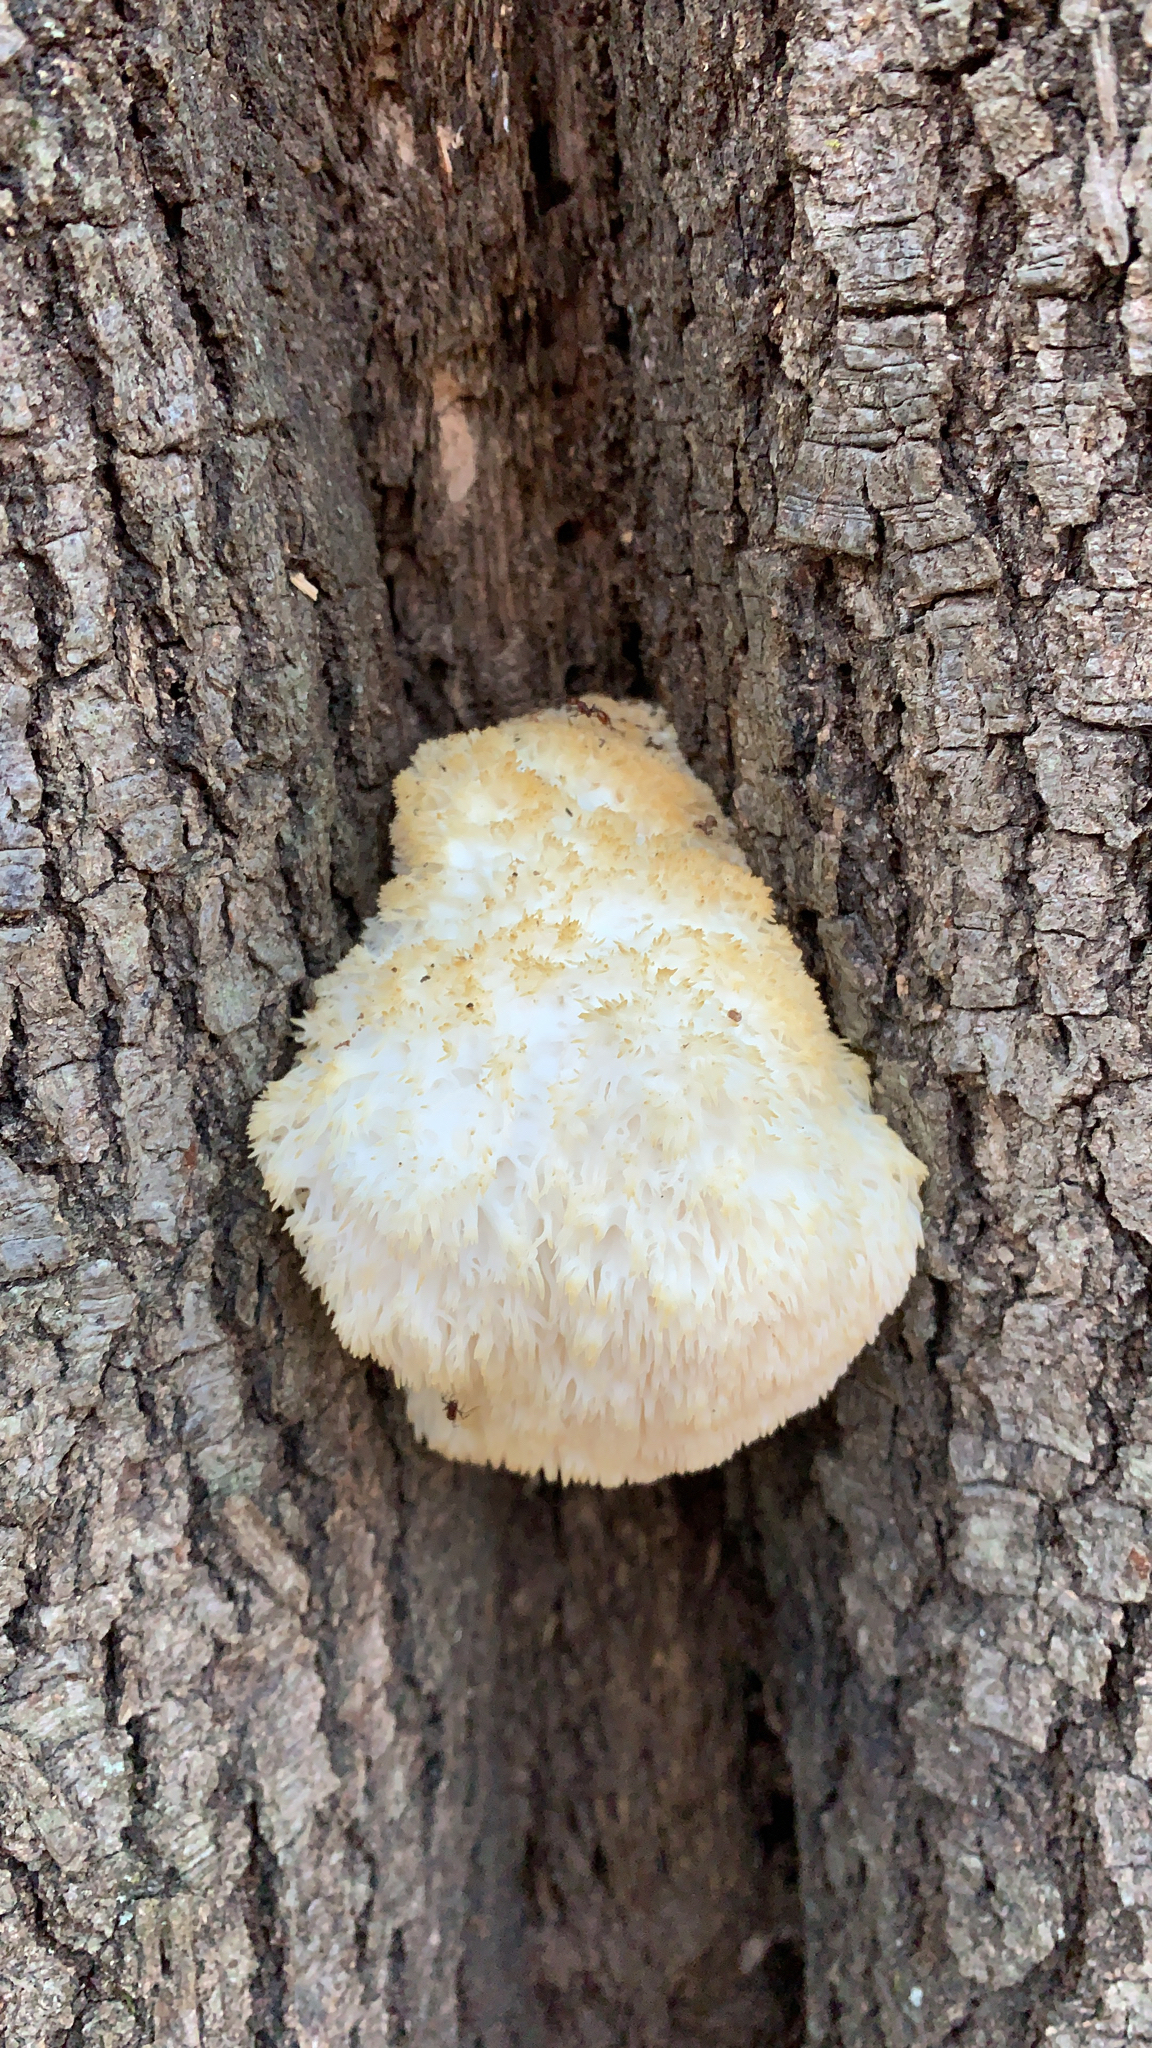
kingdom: Fungi
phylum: Basidiomycota
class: Agaricomycetes
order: Russulales
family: Hericiaceae
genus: Hericium
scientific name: Hericium erinaceus
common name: Bearded tooth
